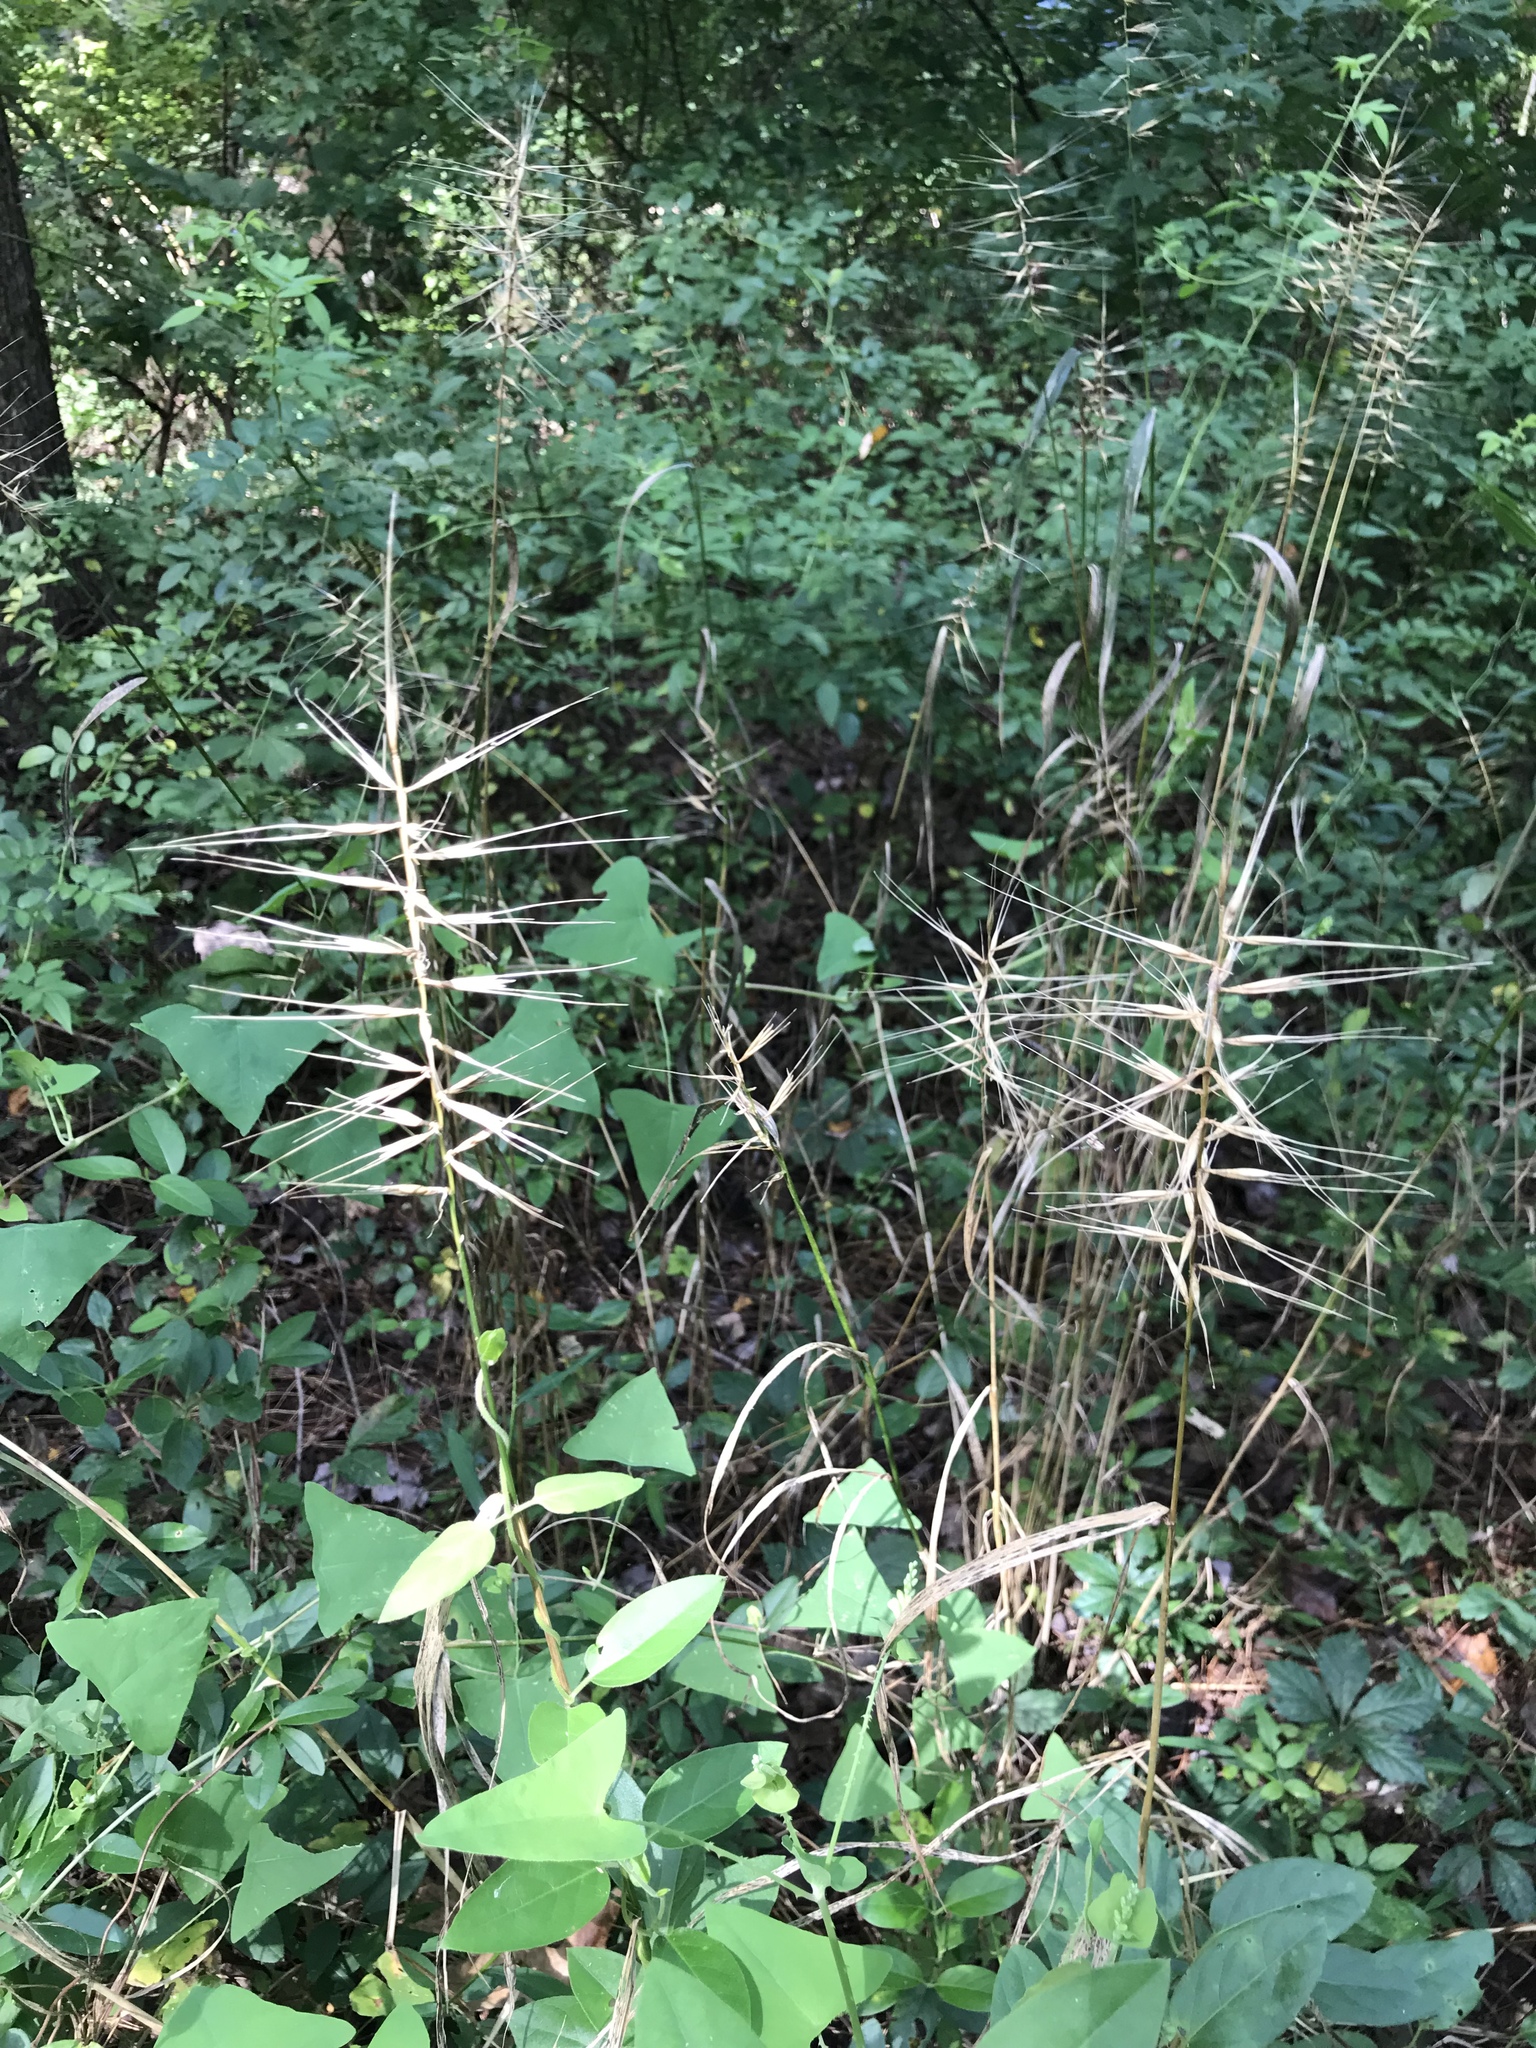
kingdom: Plantae
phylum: Tracheophyta
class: Liliopsida
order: Poales
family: Poaceae
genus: Elymus
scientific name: Elymus hystrix
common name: Bottlebrush grass
